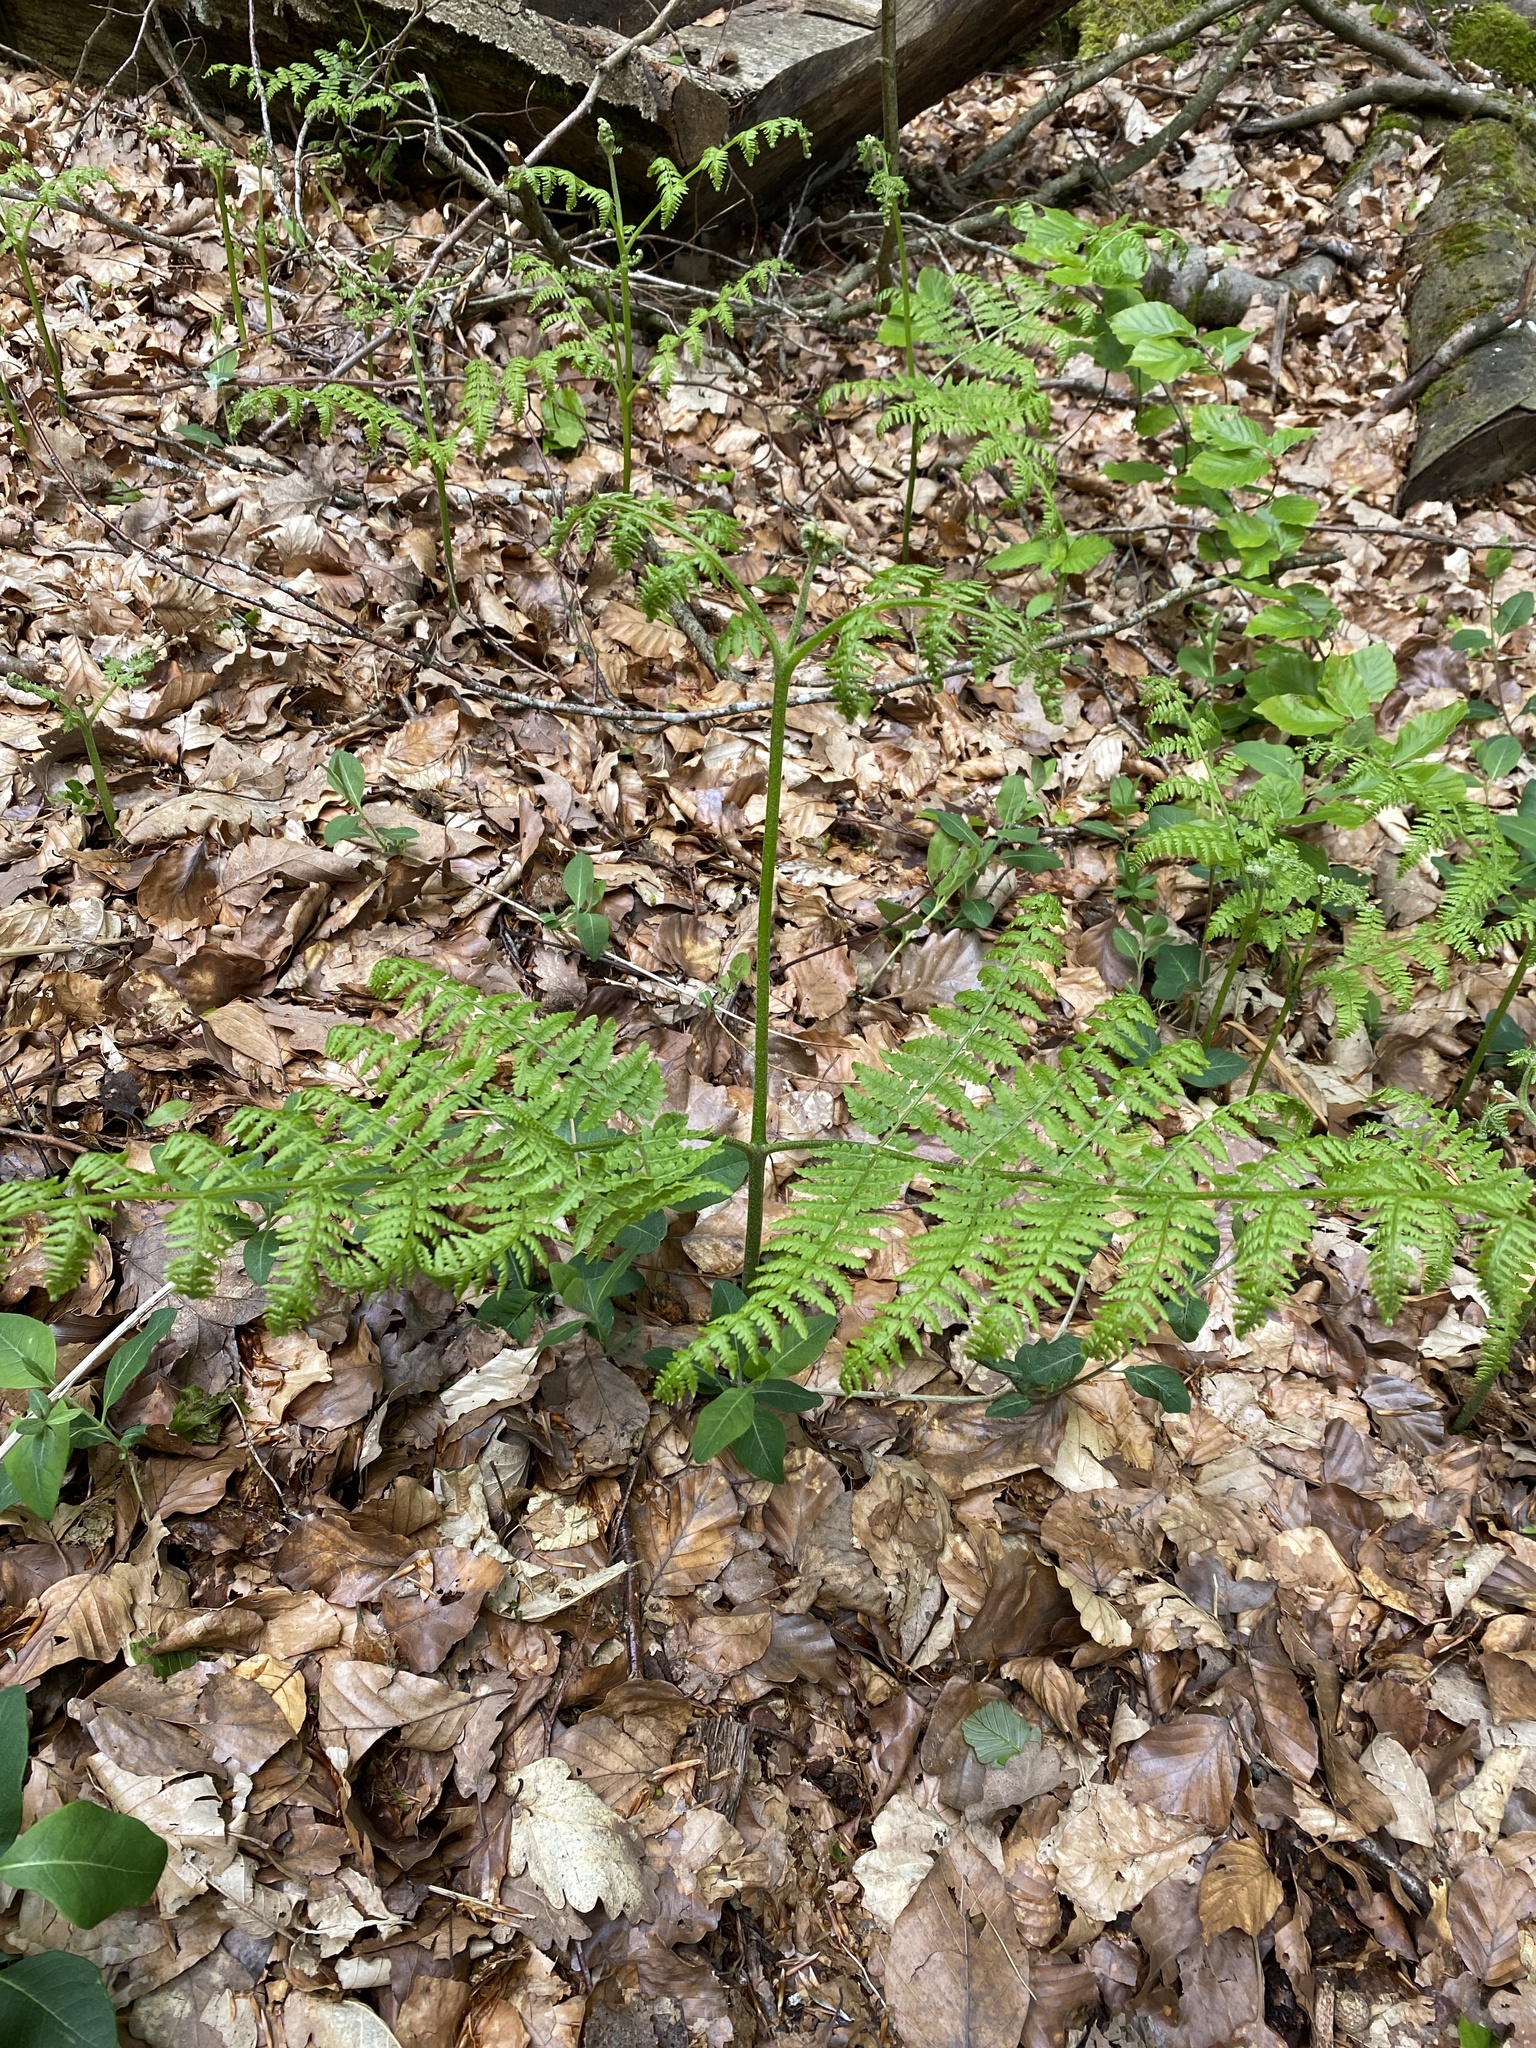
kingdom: Plantae
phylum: Tracheophyta
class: Polypodiopsida
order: Polypodiales
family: Dennstaedtiaceae
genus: Pteridium
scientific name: Pteridium aquilinum
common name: Bracken
